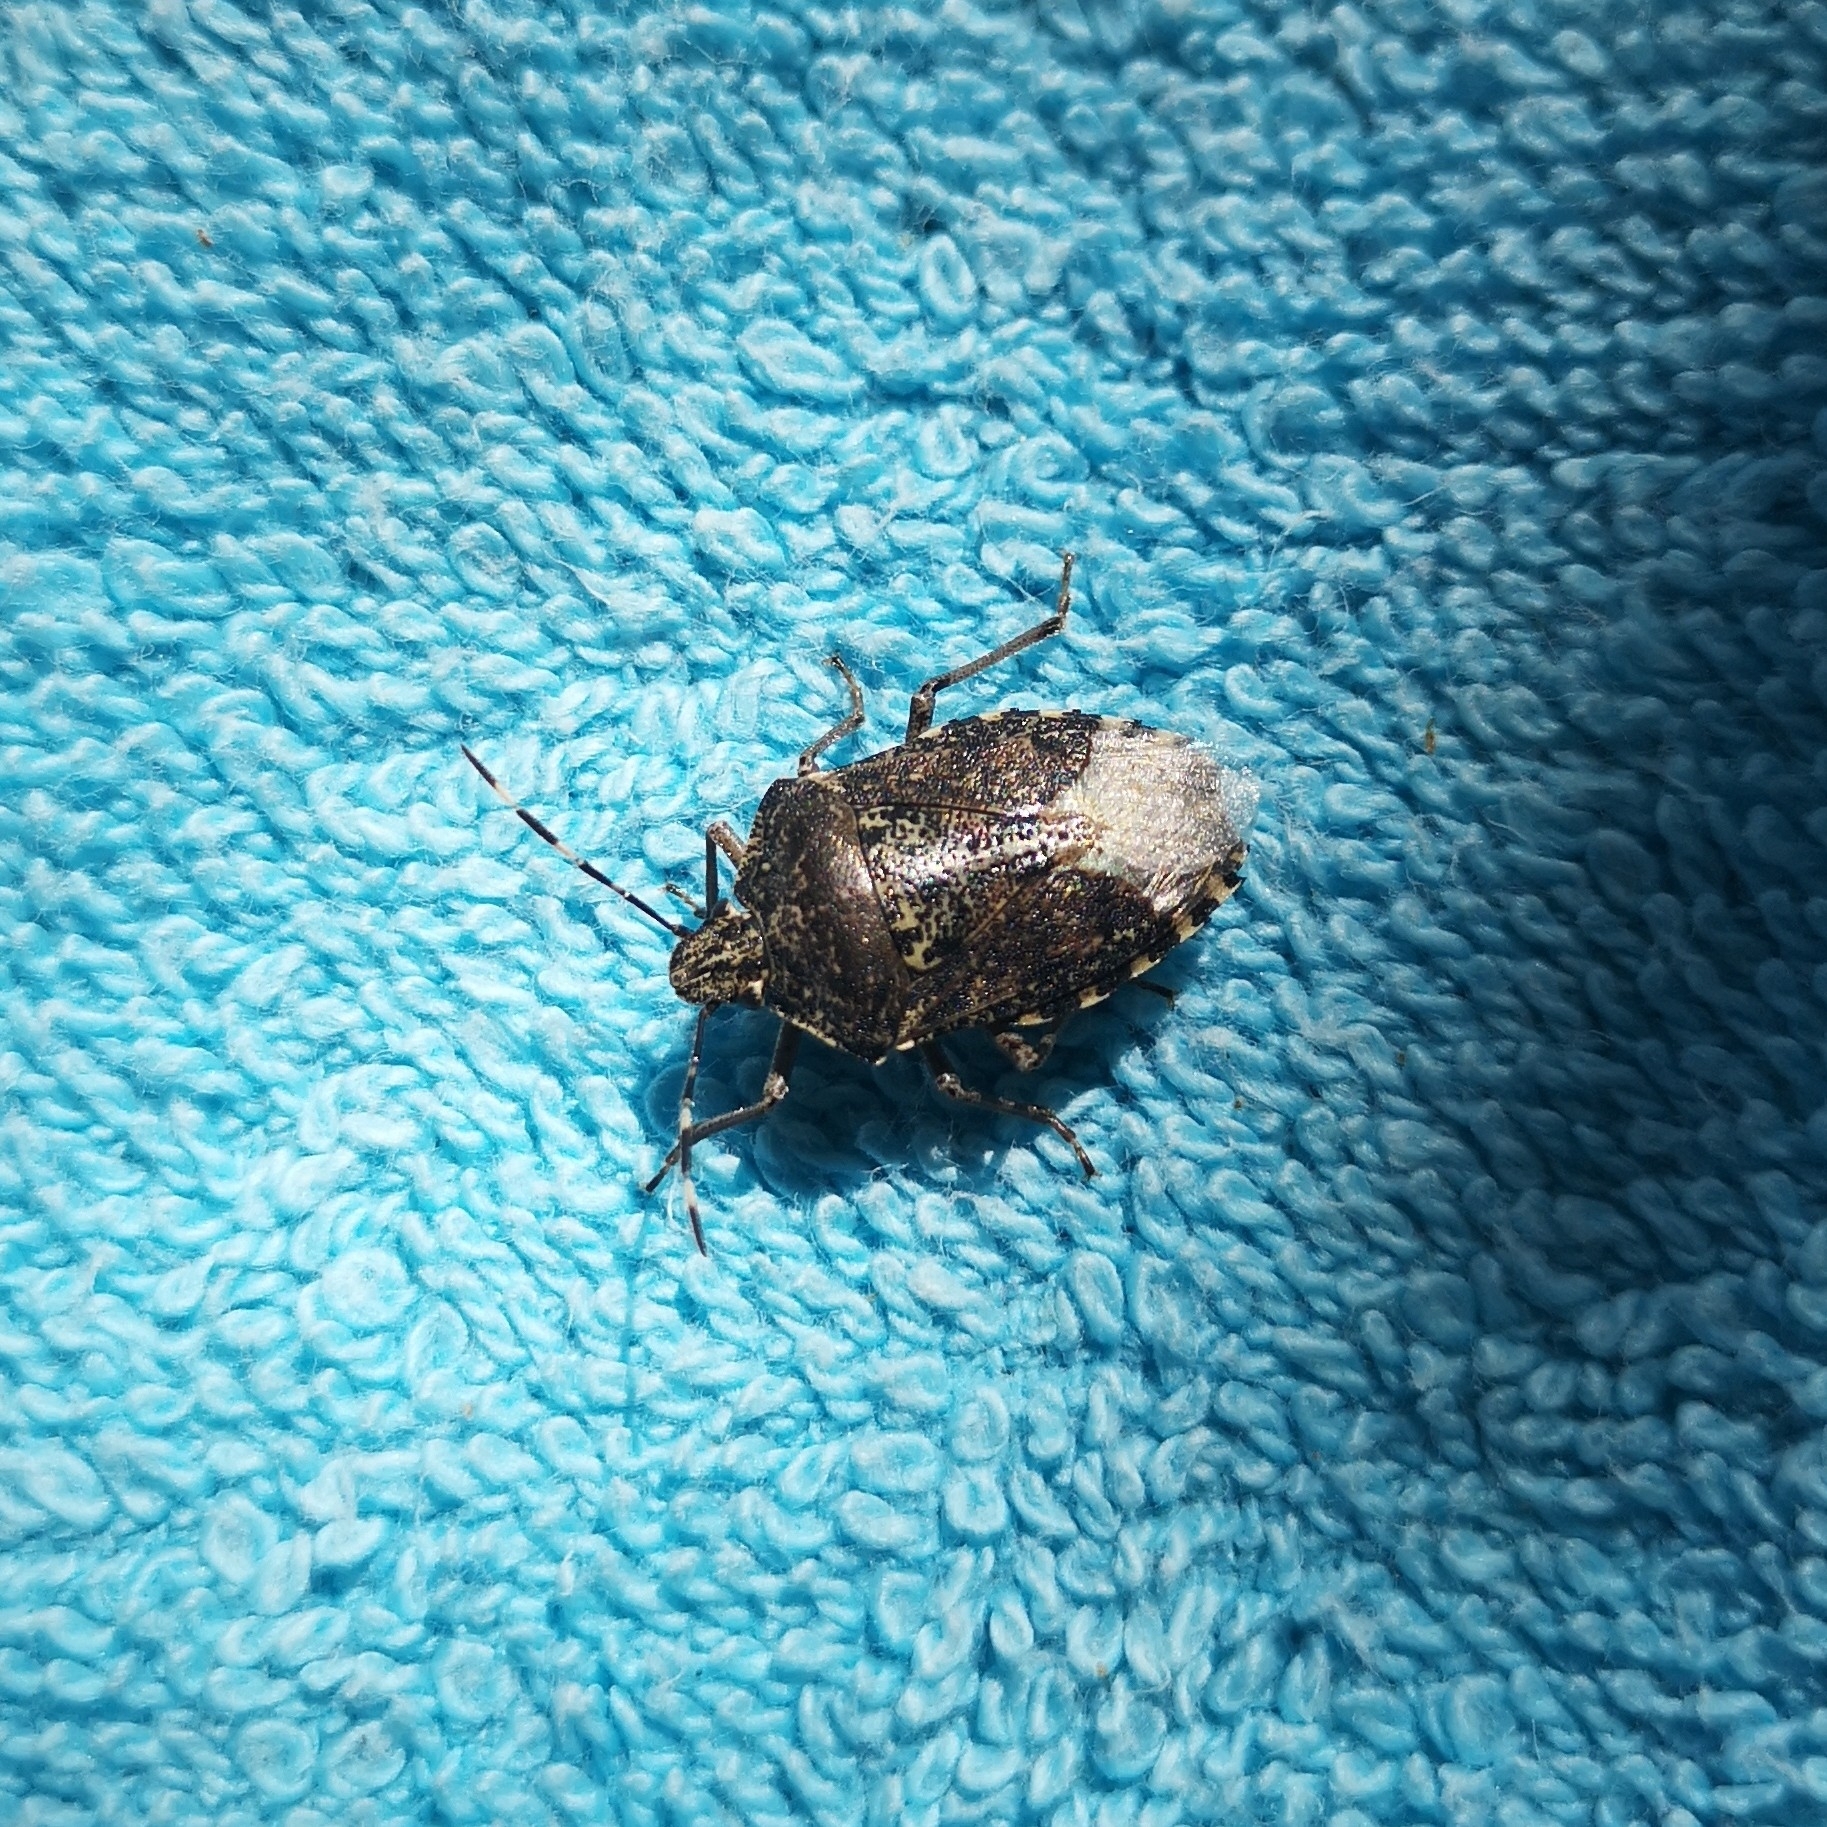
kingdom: Animalia
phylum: Arthropoda
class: Insecta
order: Hemiptera
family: Pentatomidae
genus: Rhaphigaster
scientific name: Rhaphigaster nebulosa
